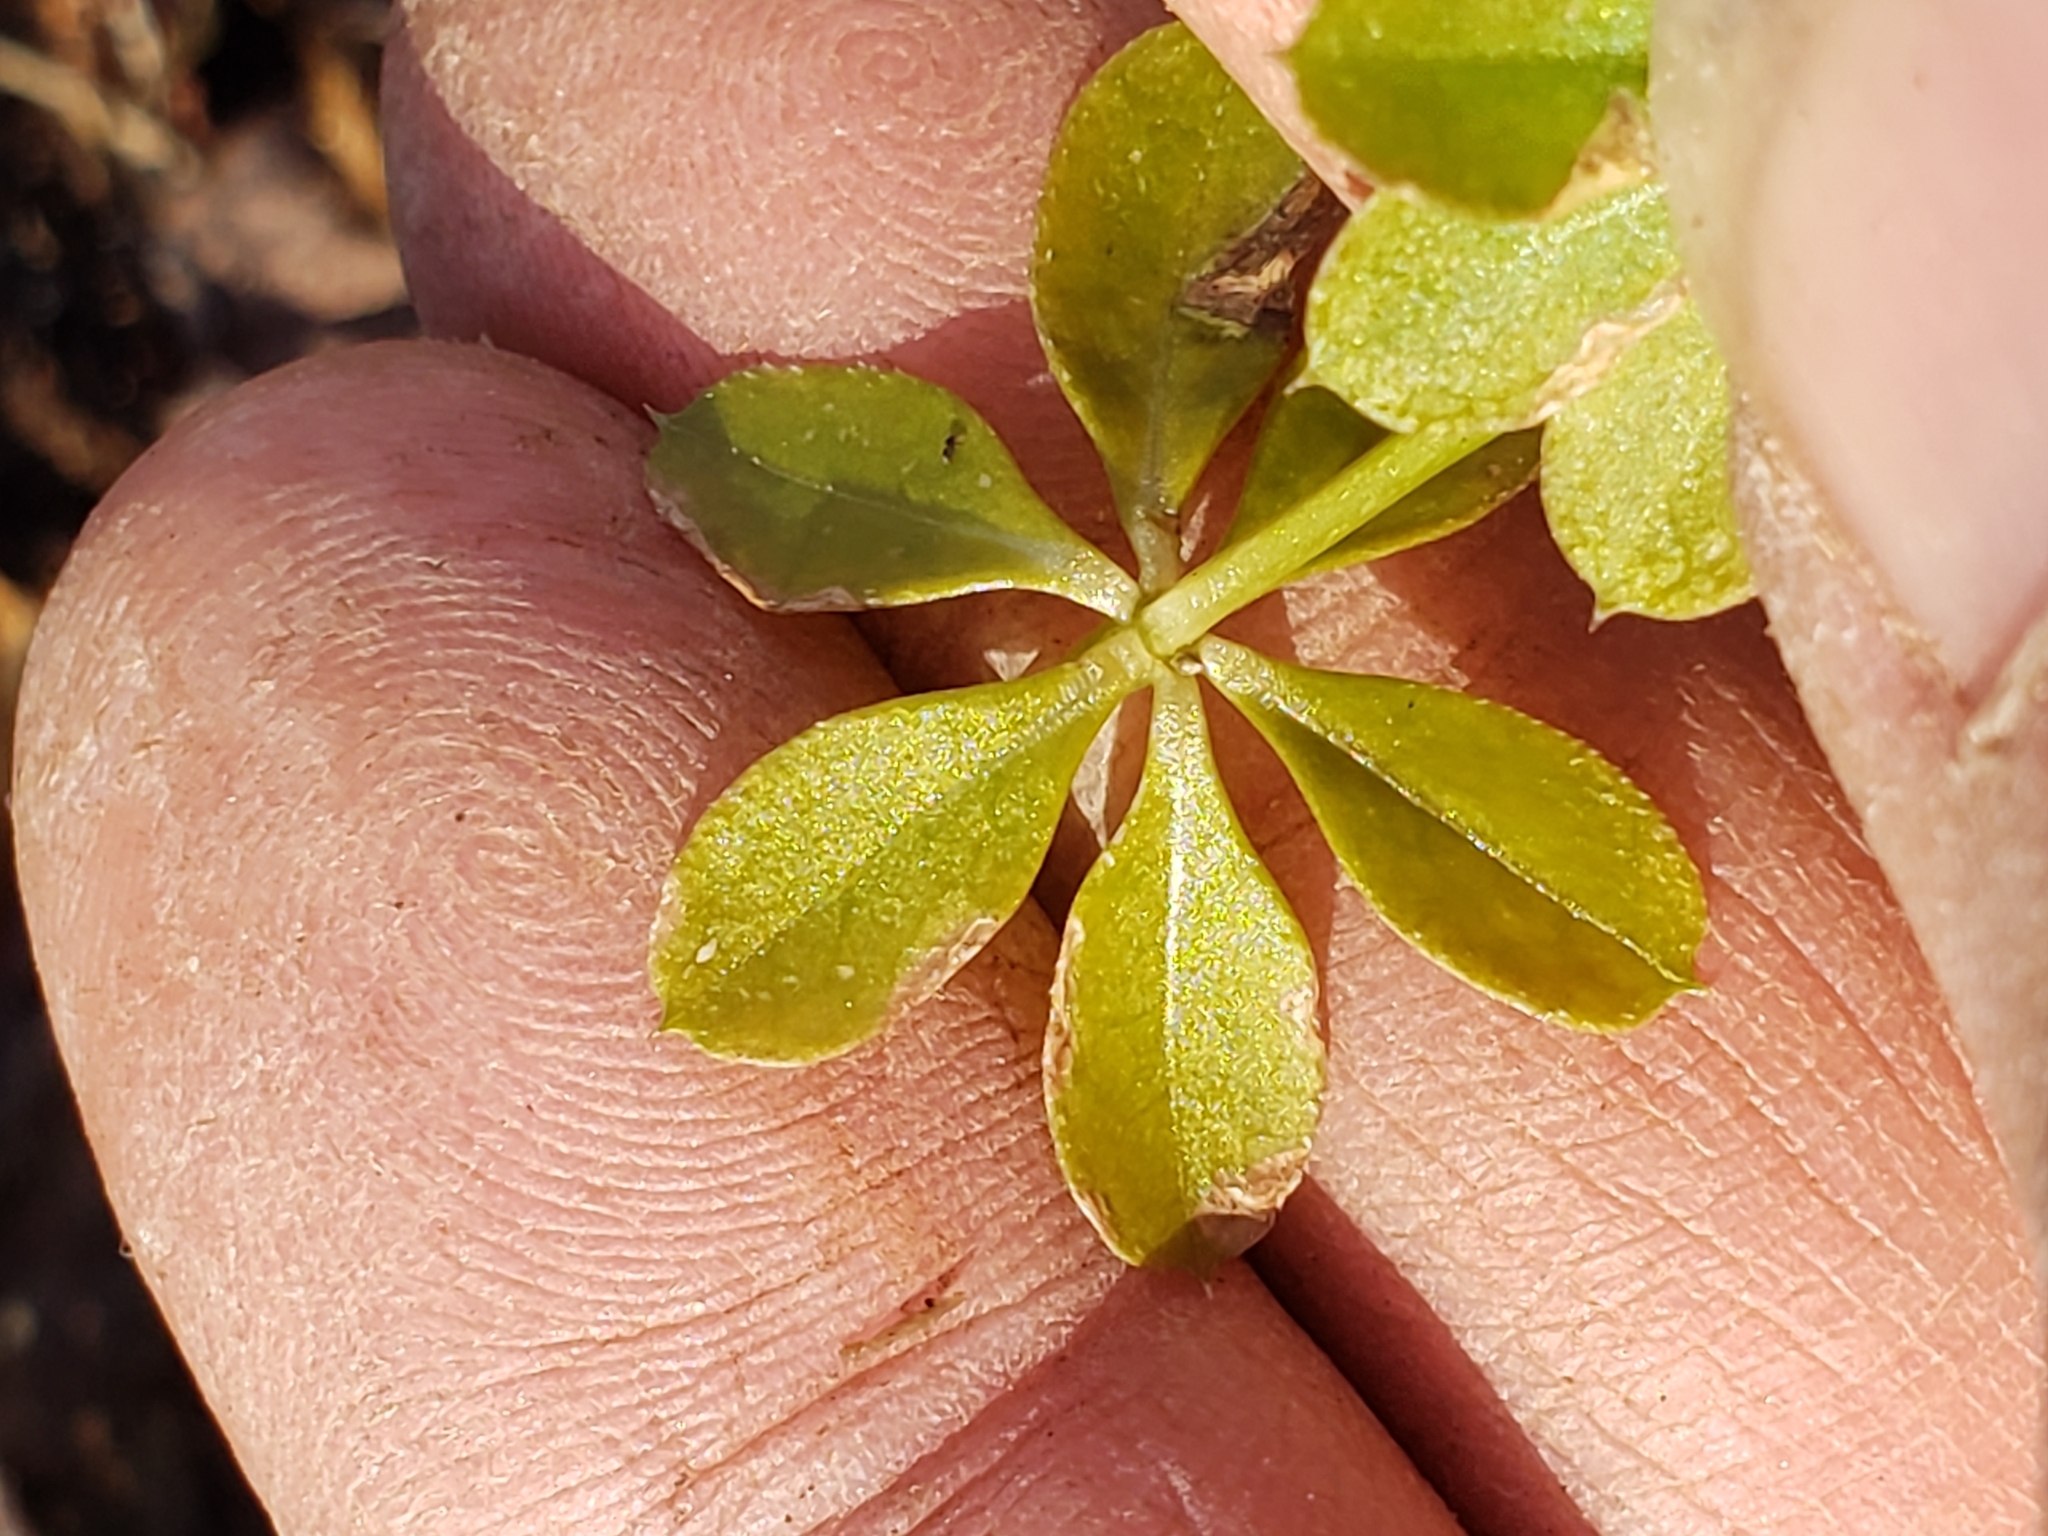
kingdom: Plantae
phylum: Tracheophyta
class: Magnoliopsida
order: Gentianales
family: Rubiaceae
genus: Galium
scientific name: Galium triflorum
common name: Fragrant bedstraw
